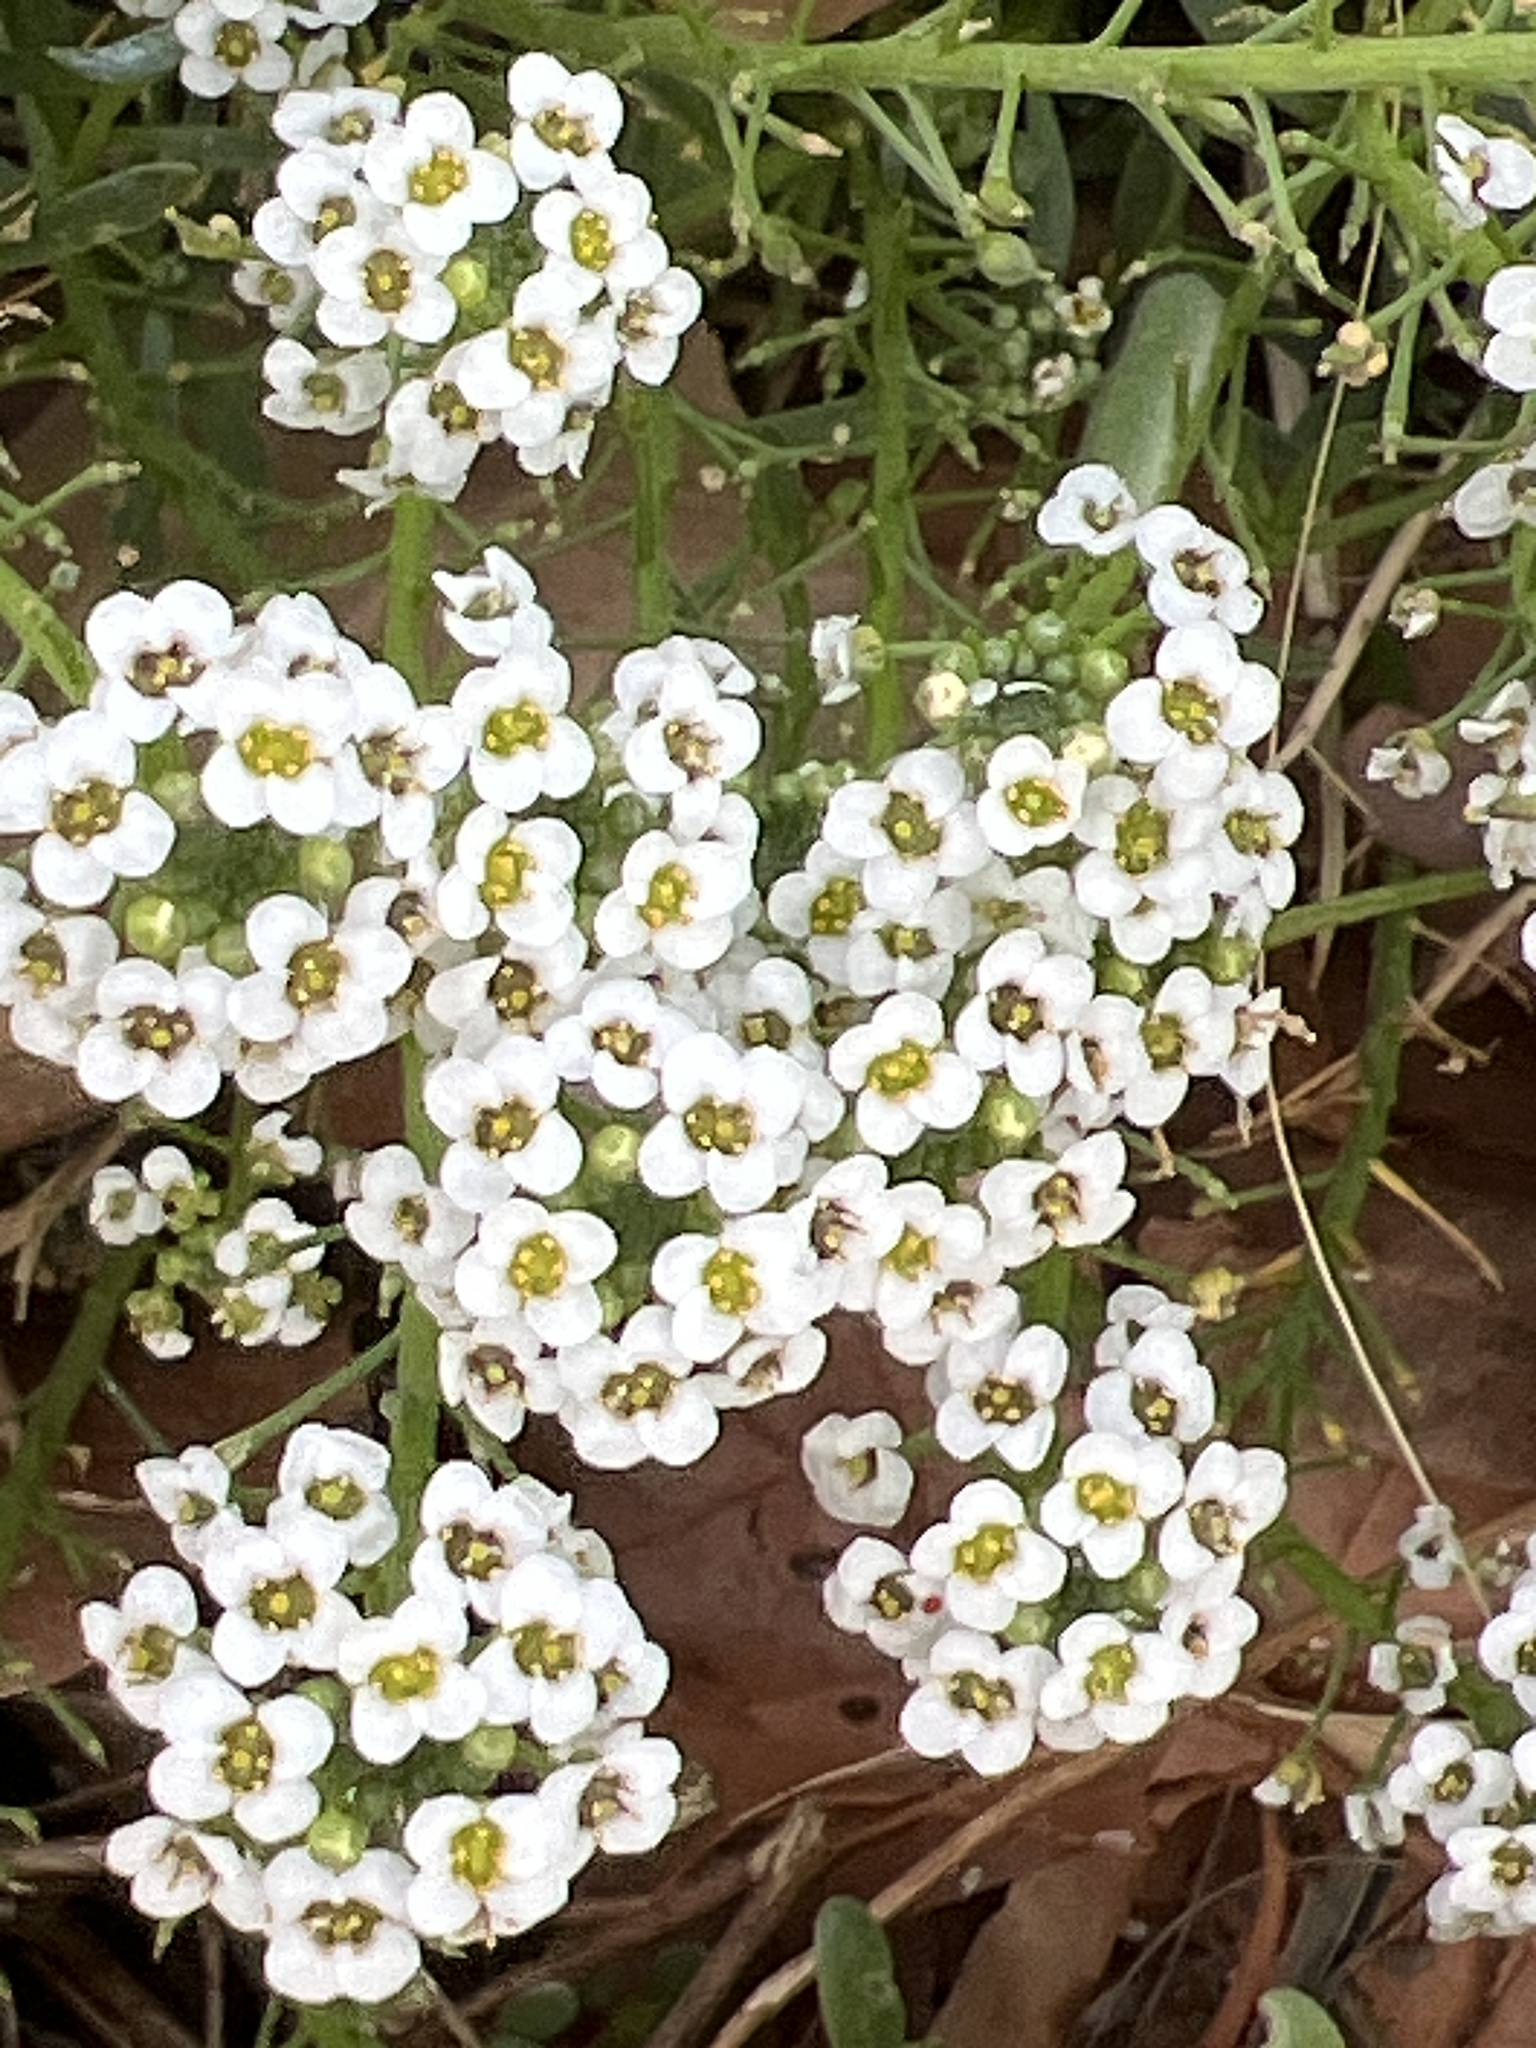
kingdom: Plantae
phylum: Tracheophyta
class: Magnoliopsida
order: Brassicales
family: Brassicaceae
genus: Lobularia
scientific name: Lobularia maritima
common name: Sweet alison
